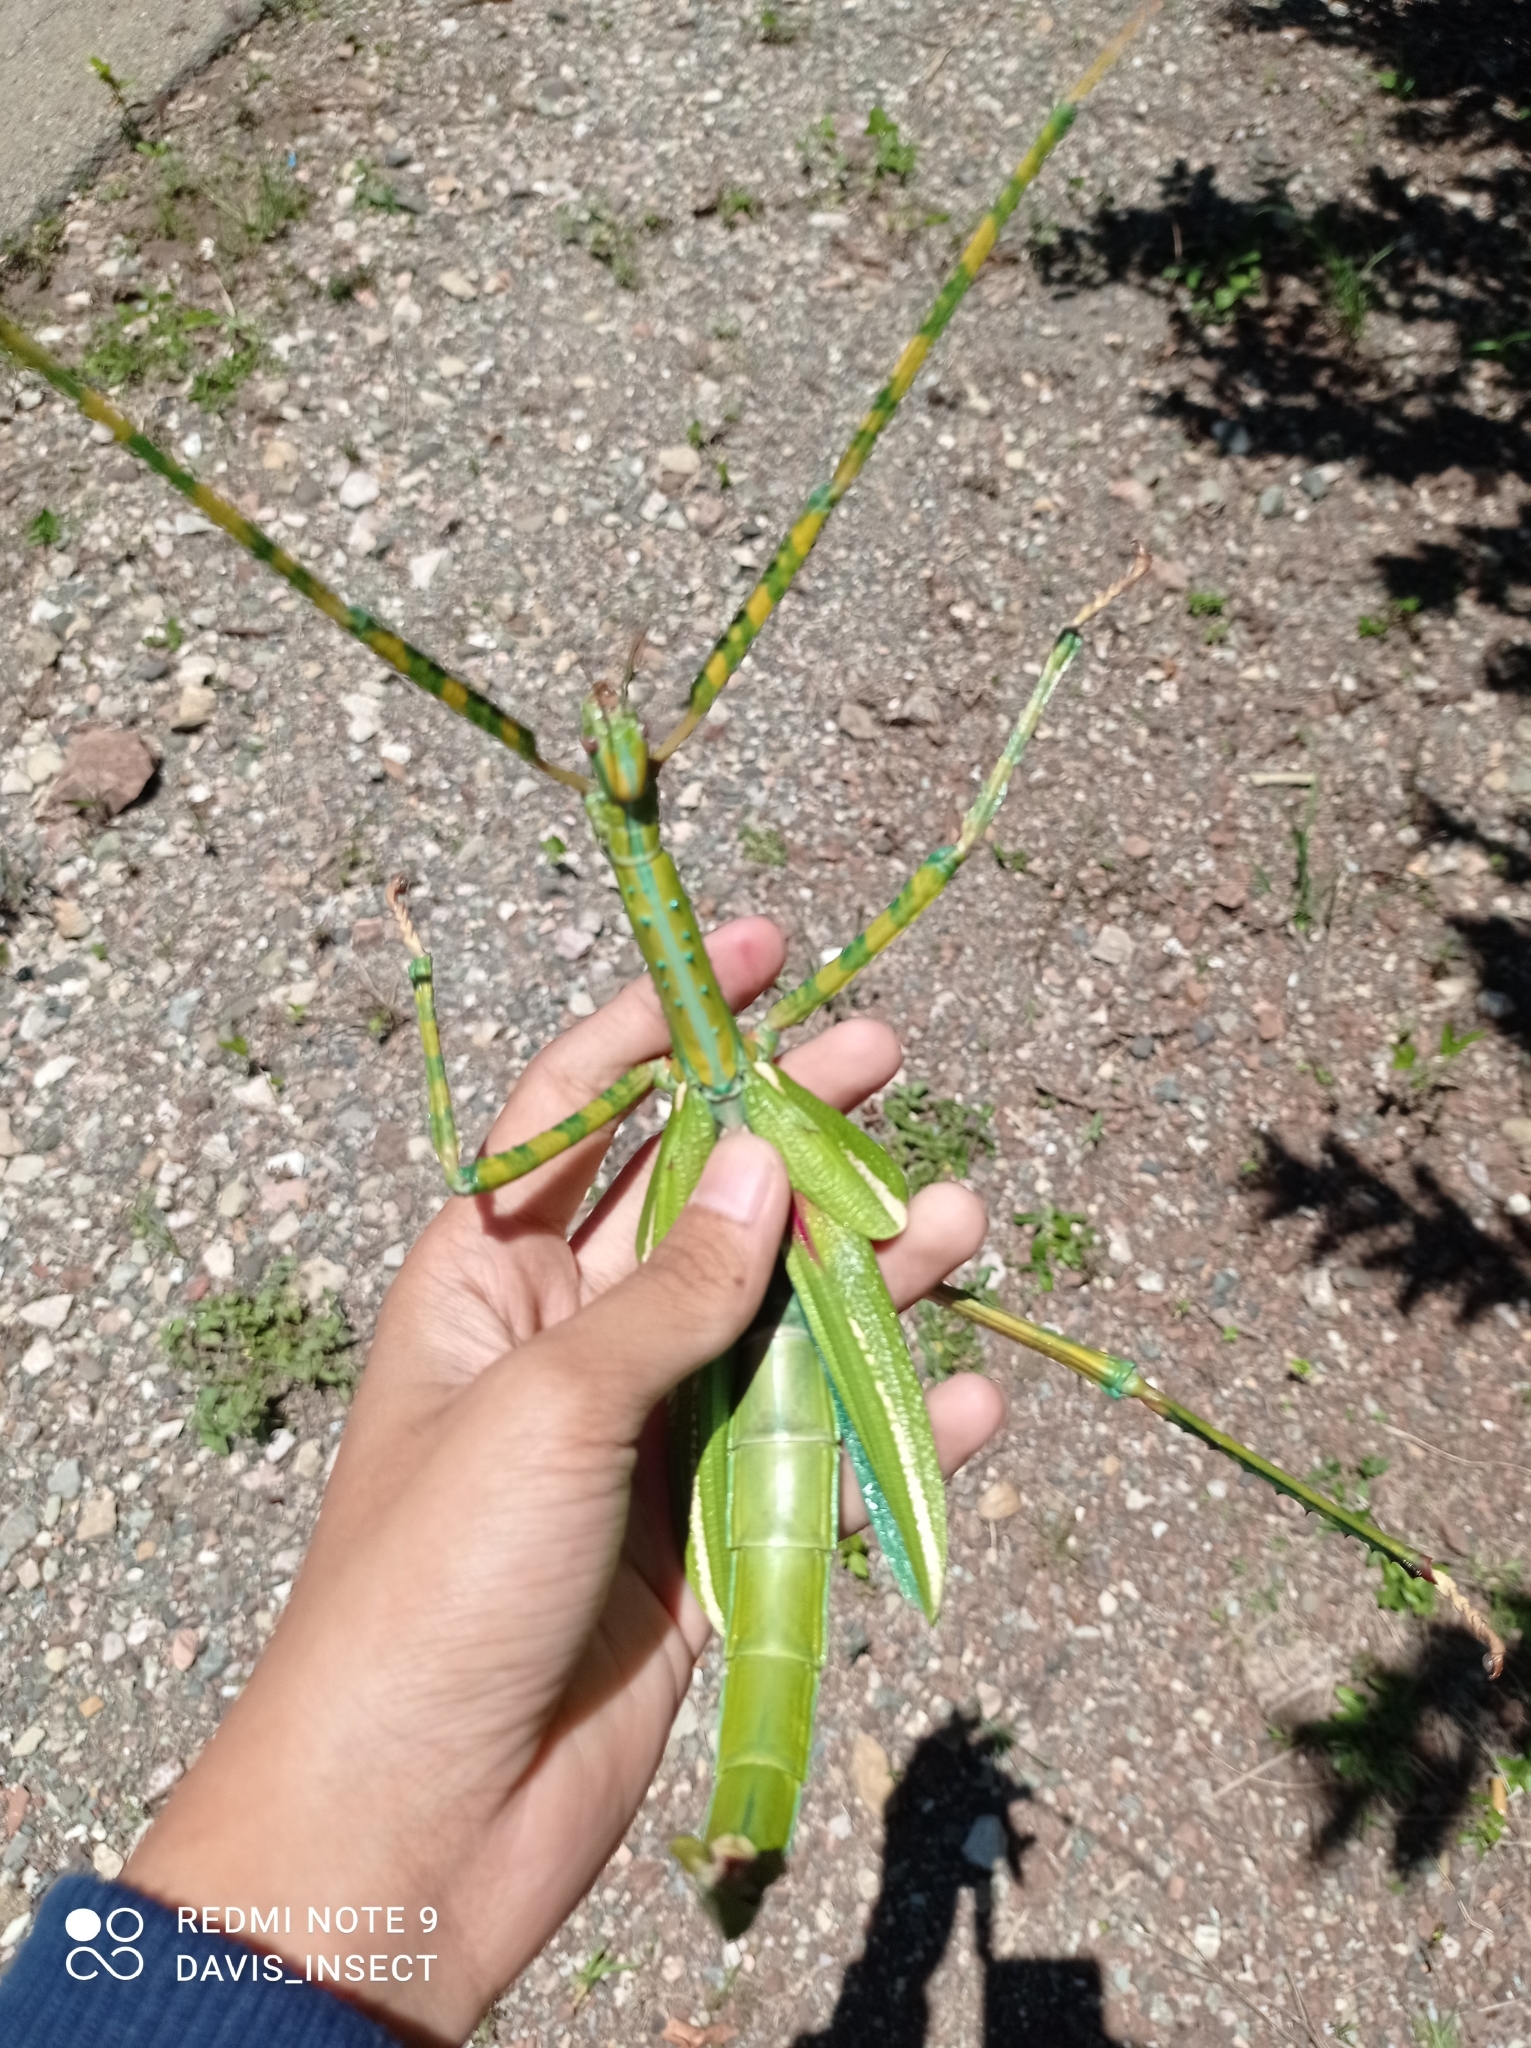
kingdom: Animalia
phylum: Arthropoda
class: Insecta
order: Phasmida
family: Phasmatidae
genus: Eurycnema
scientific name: Eurycnema versirubra
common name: Red-winged green giant stick-insect
